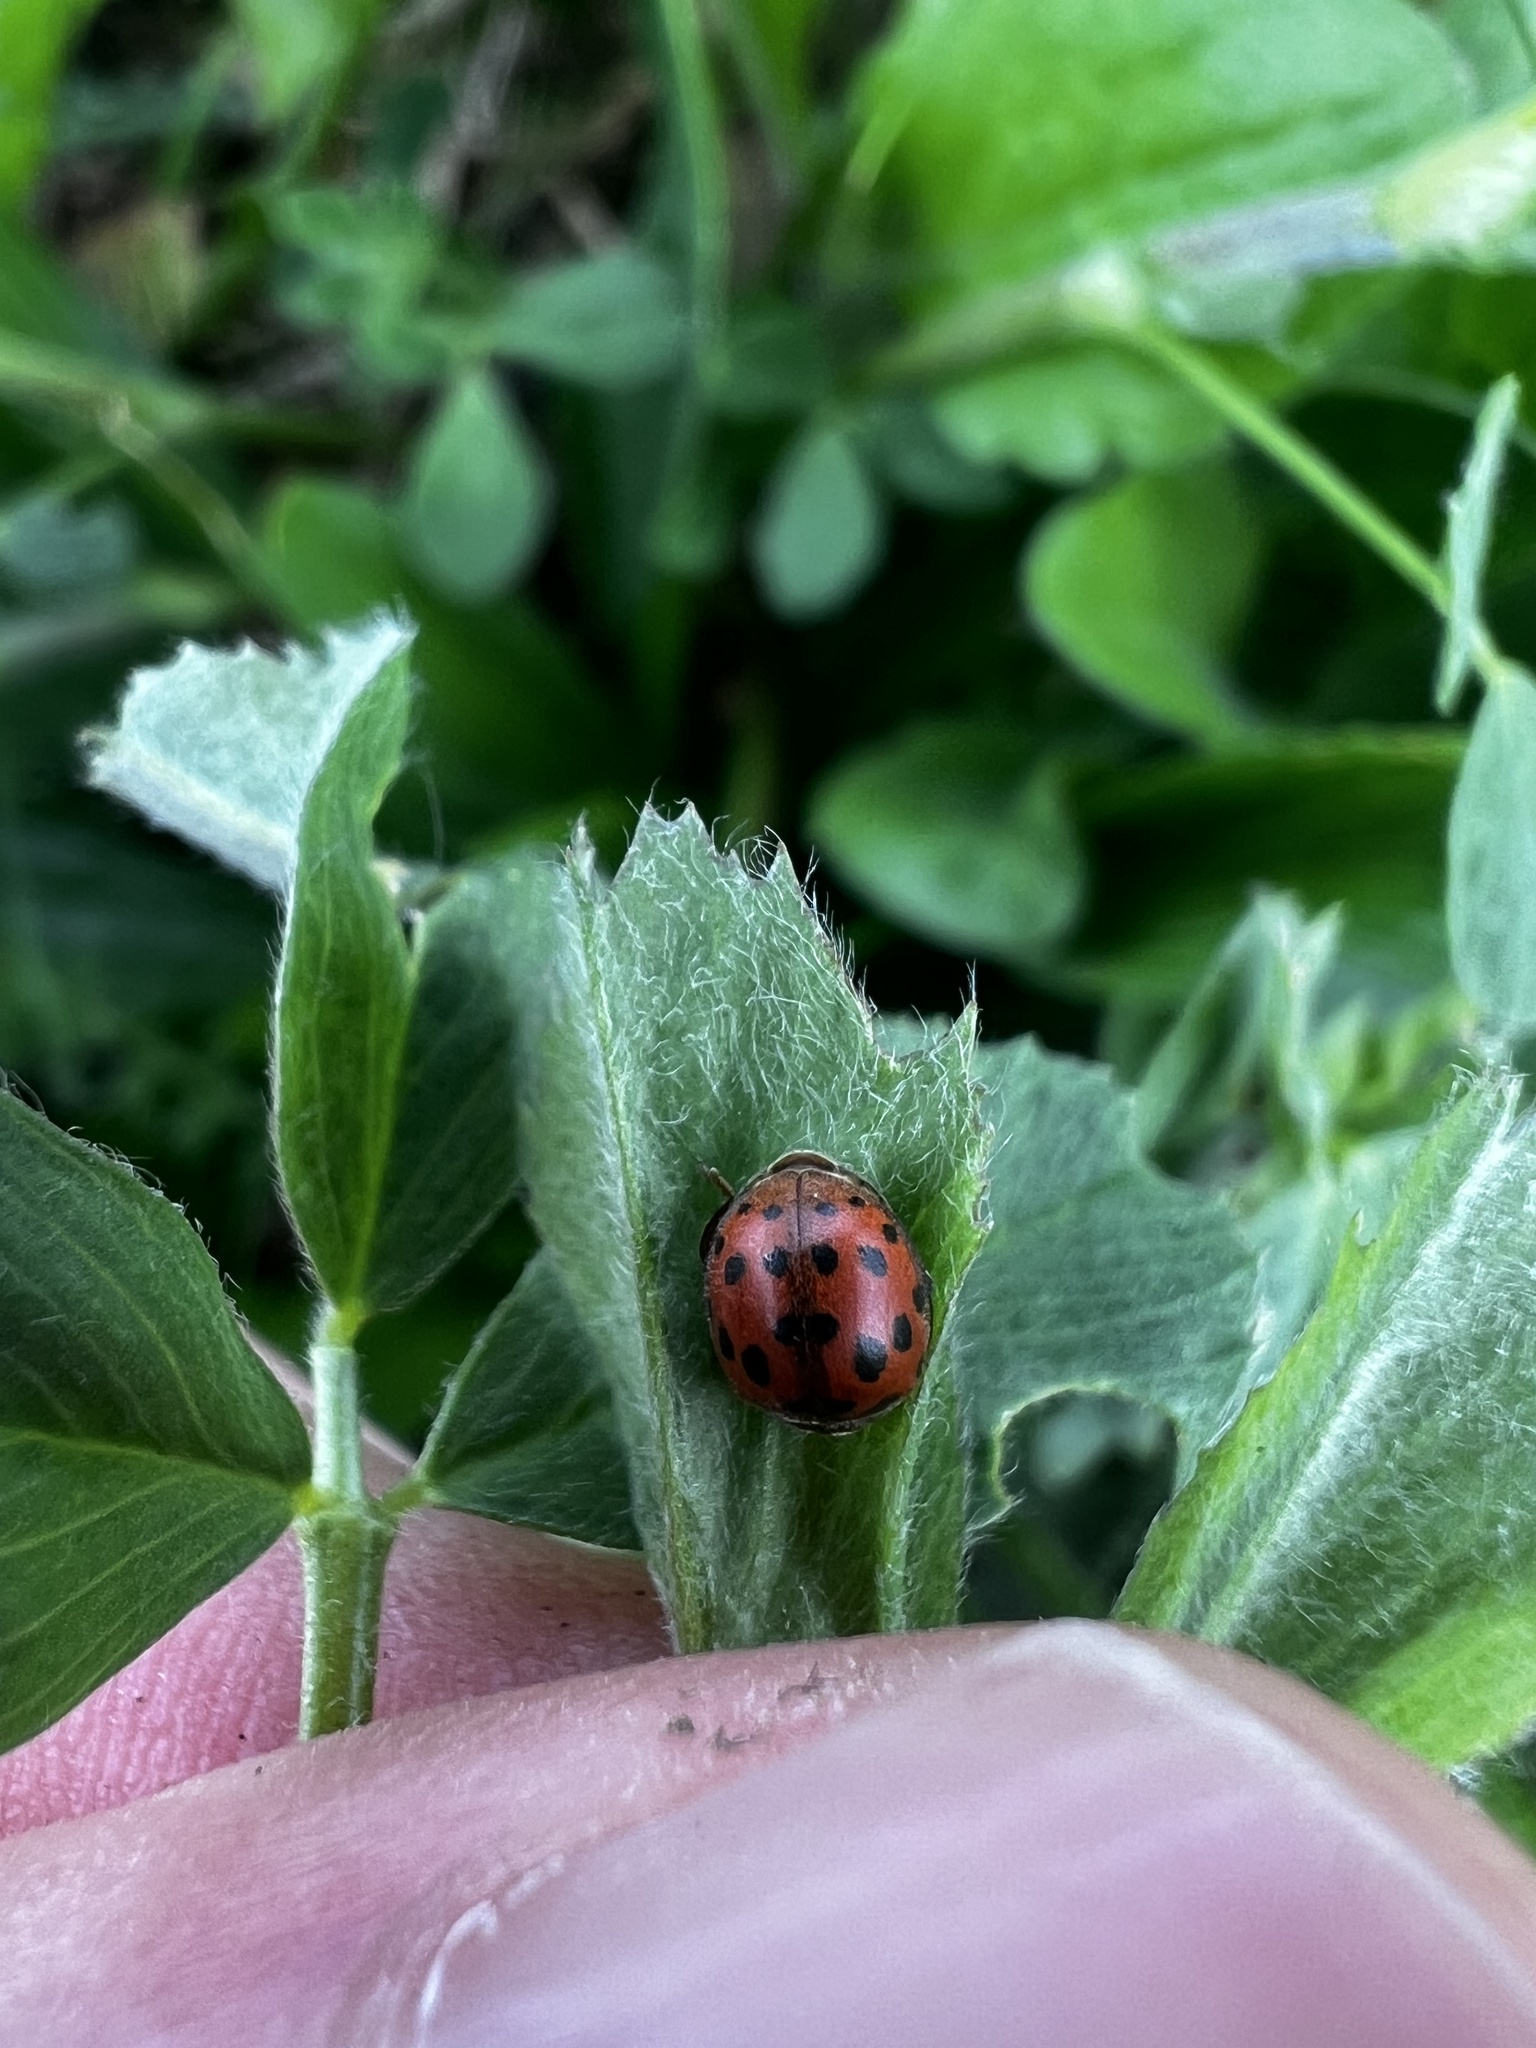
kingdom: Animalia
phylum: Arthropoda
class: Insecta
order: Coleoptera
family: Coccinellidae
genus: Subcoccinella
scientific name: Subcoccinella vigintiquatuorpunctata
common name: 24-spot ladybird
